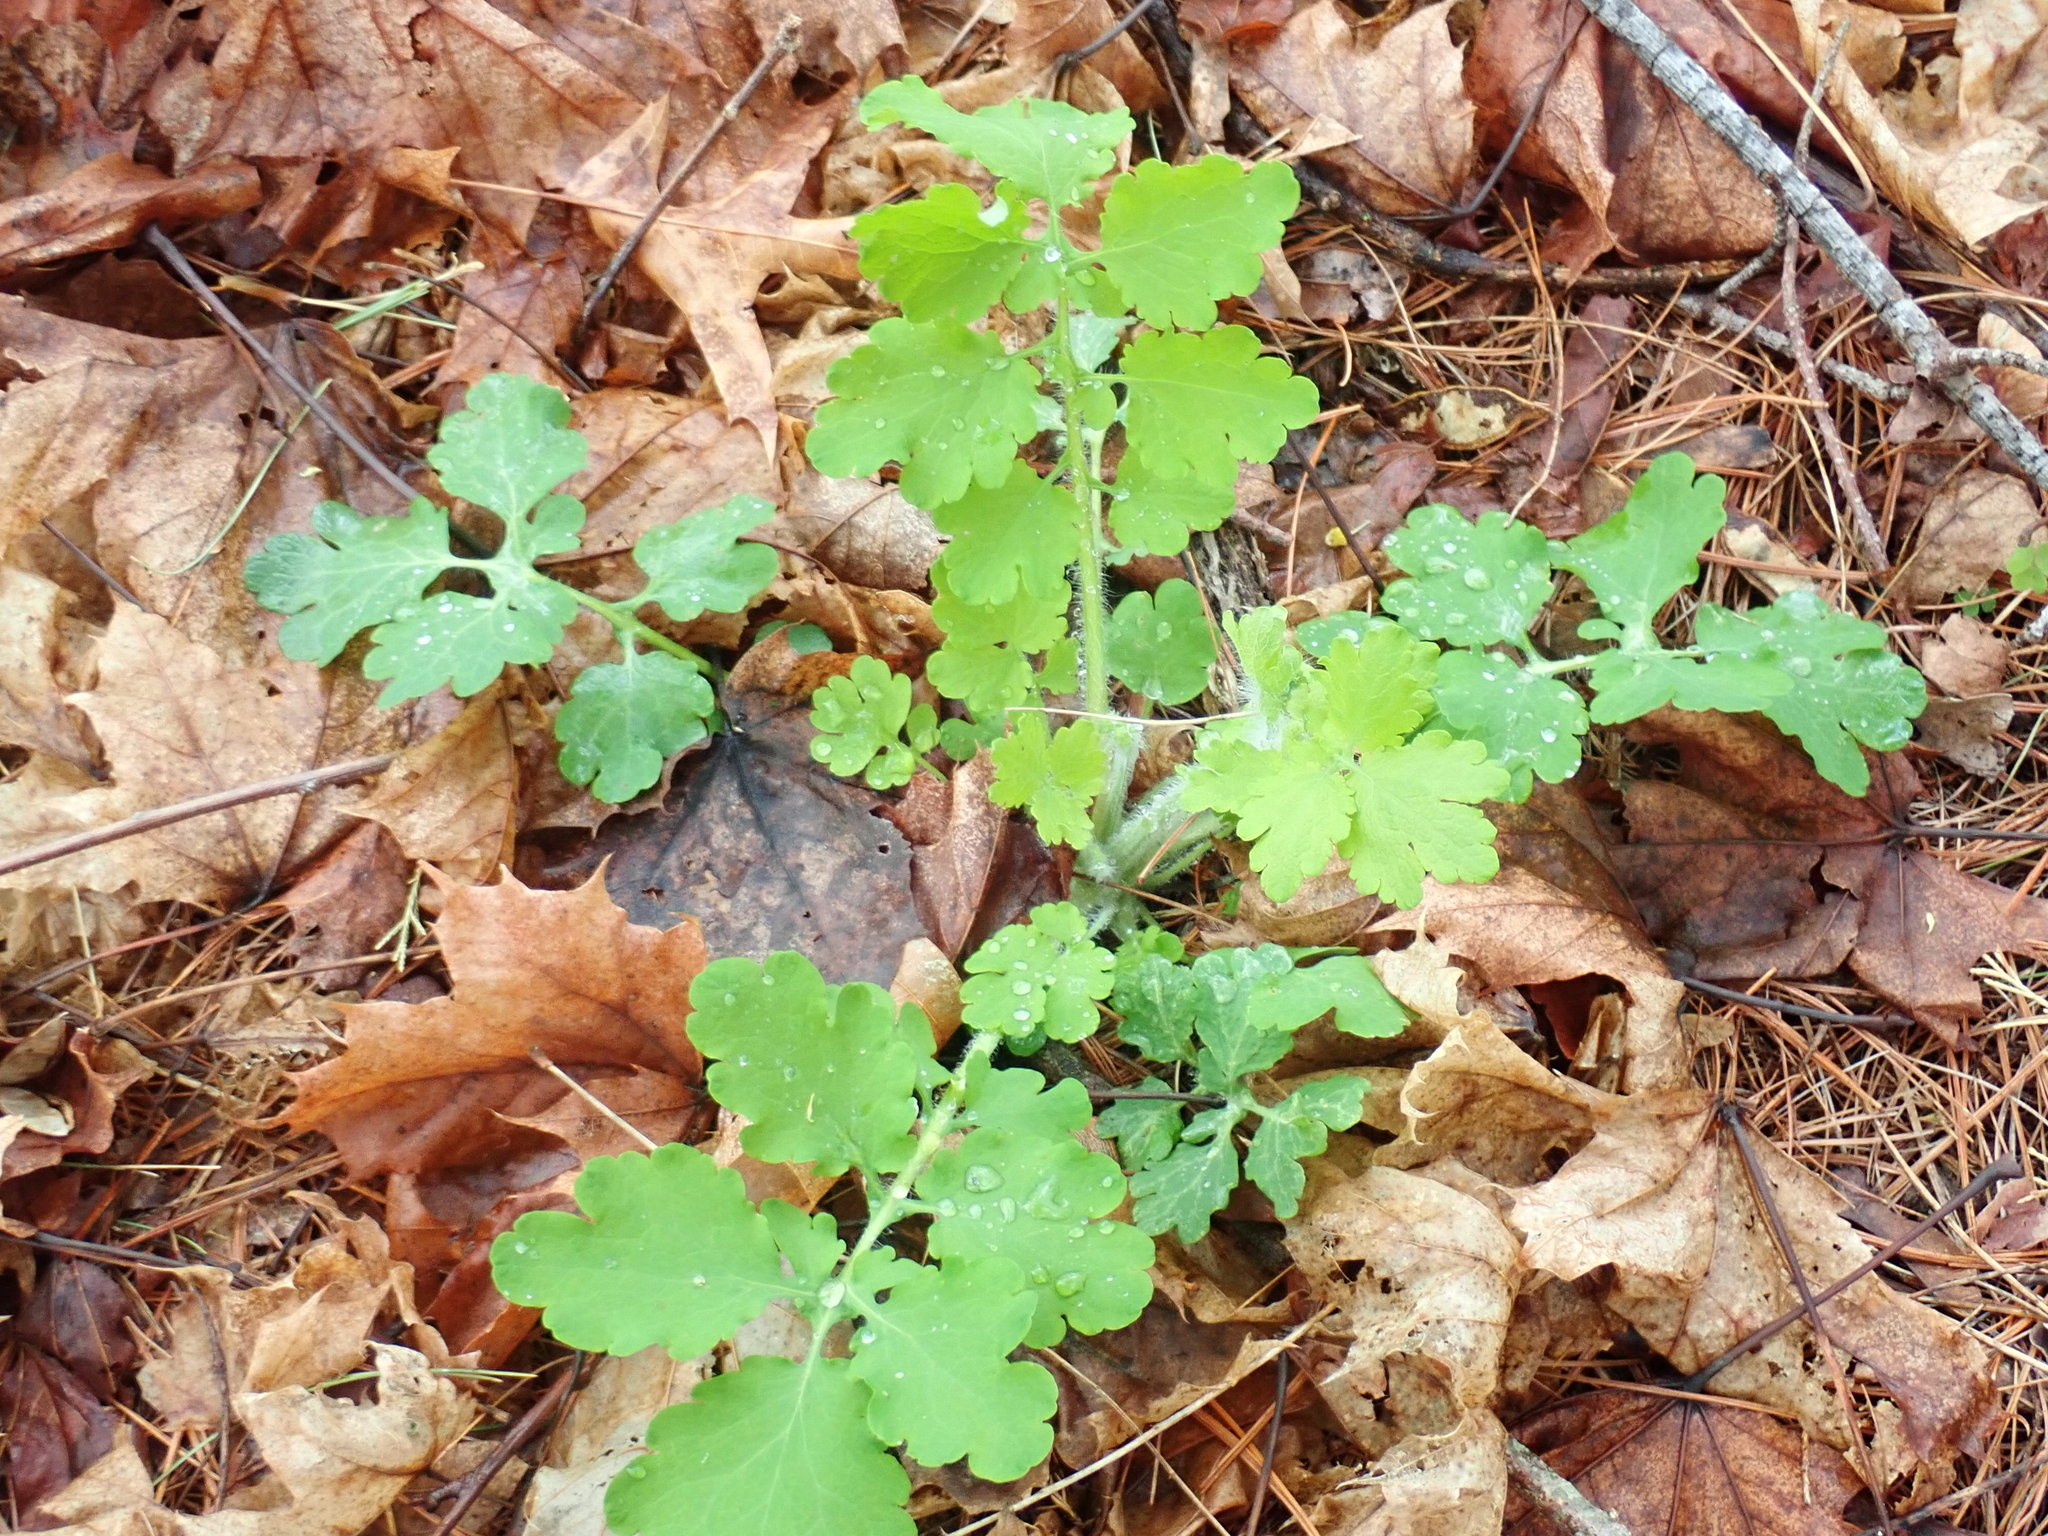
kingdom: Plantae
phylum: Tracheophyta
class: Magnoliopsida
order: Ranunculales
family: Papaveraceae
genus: Chelidonium
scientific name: Chelidonium majus
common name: Greater celandine
